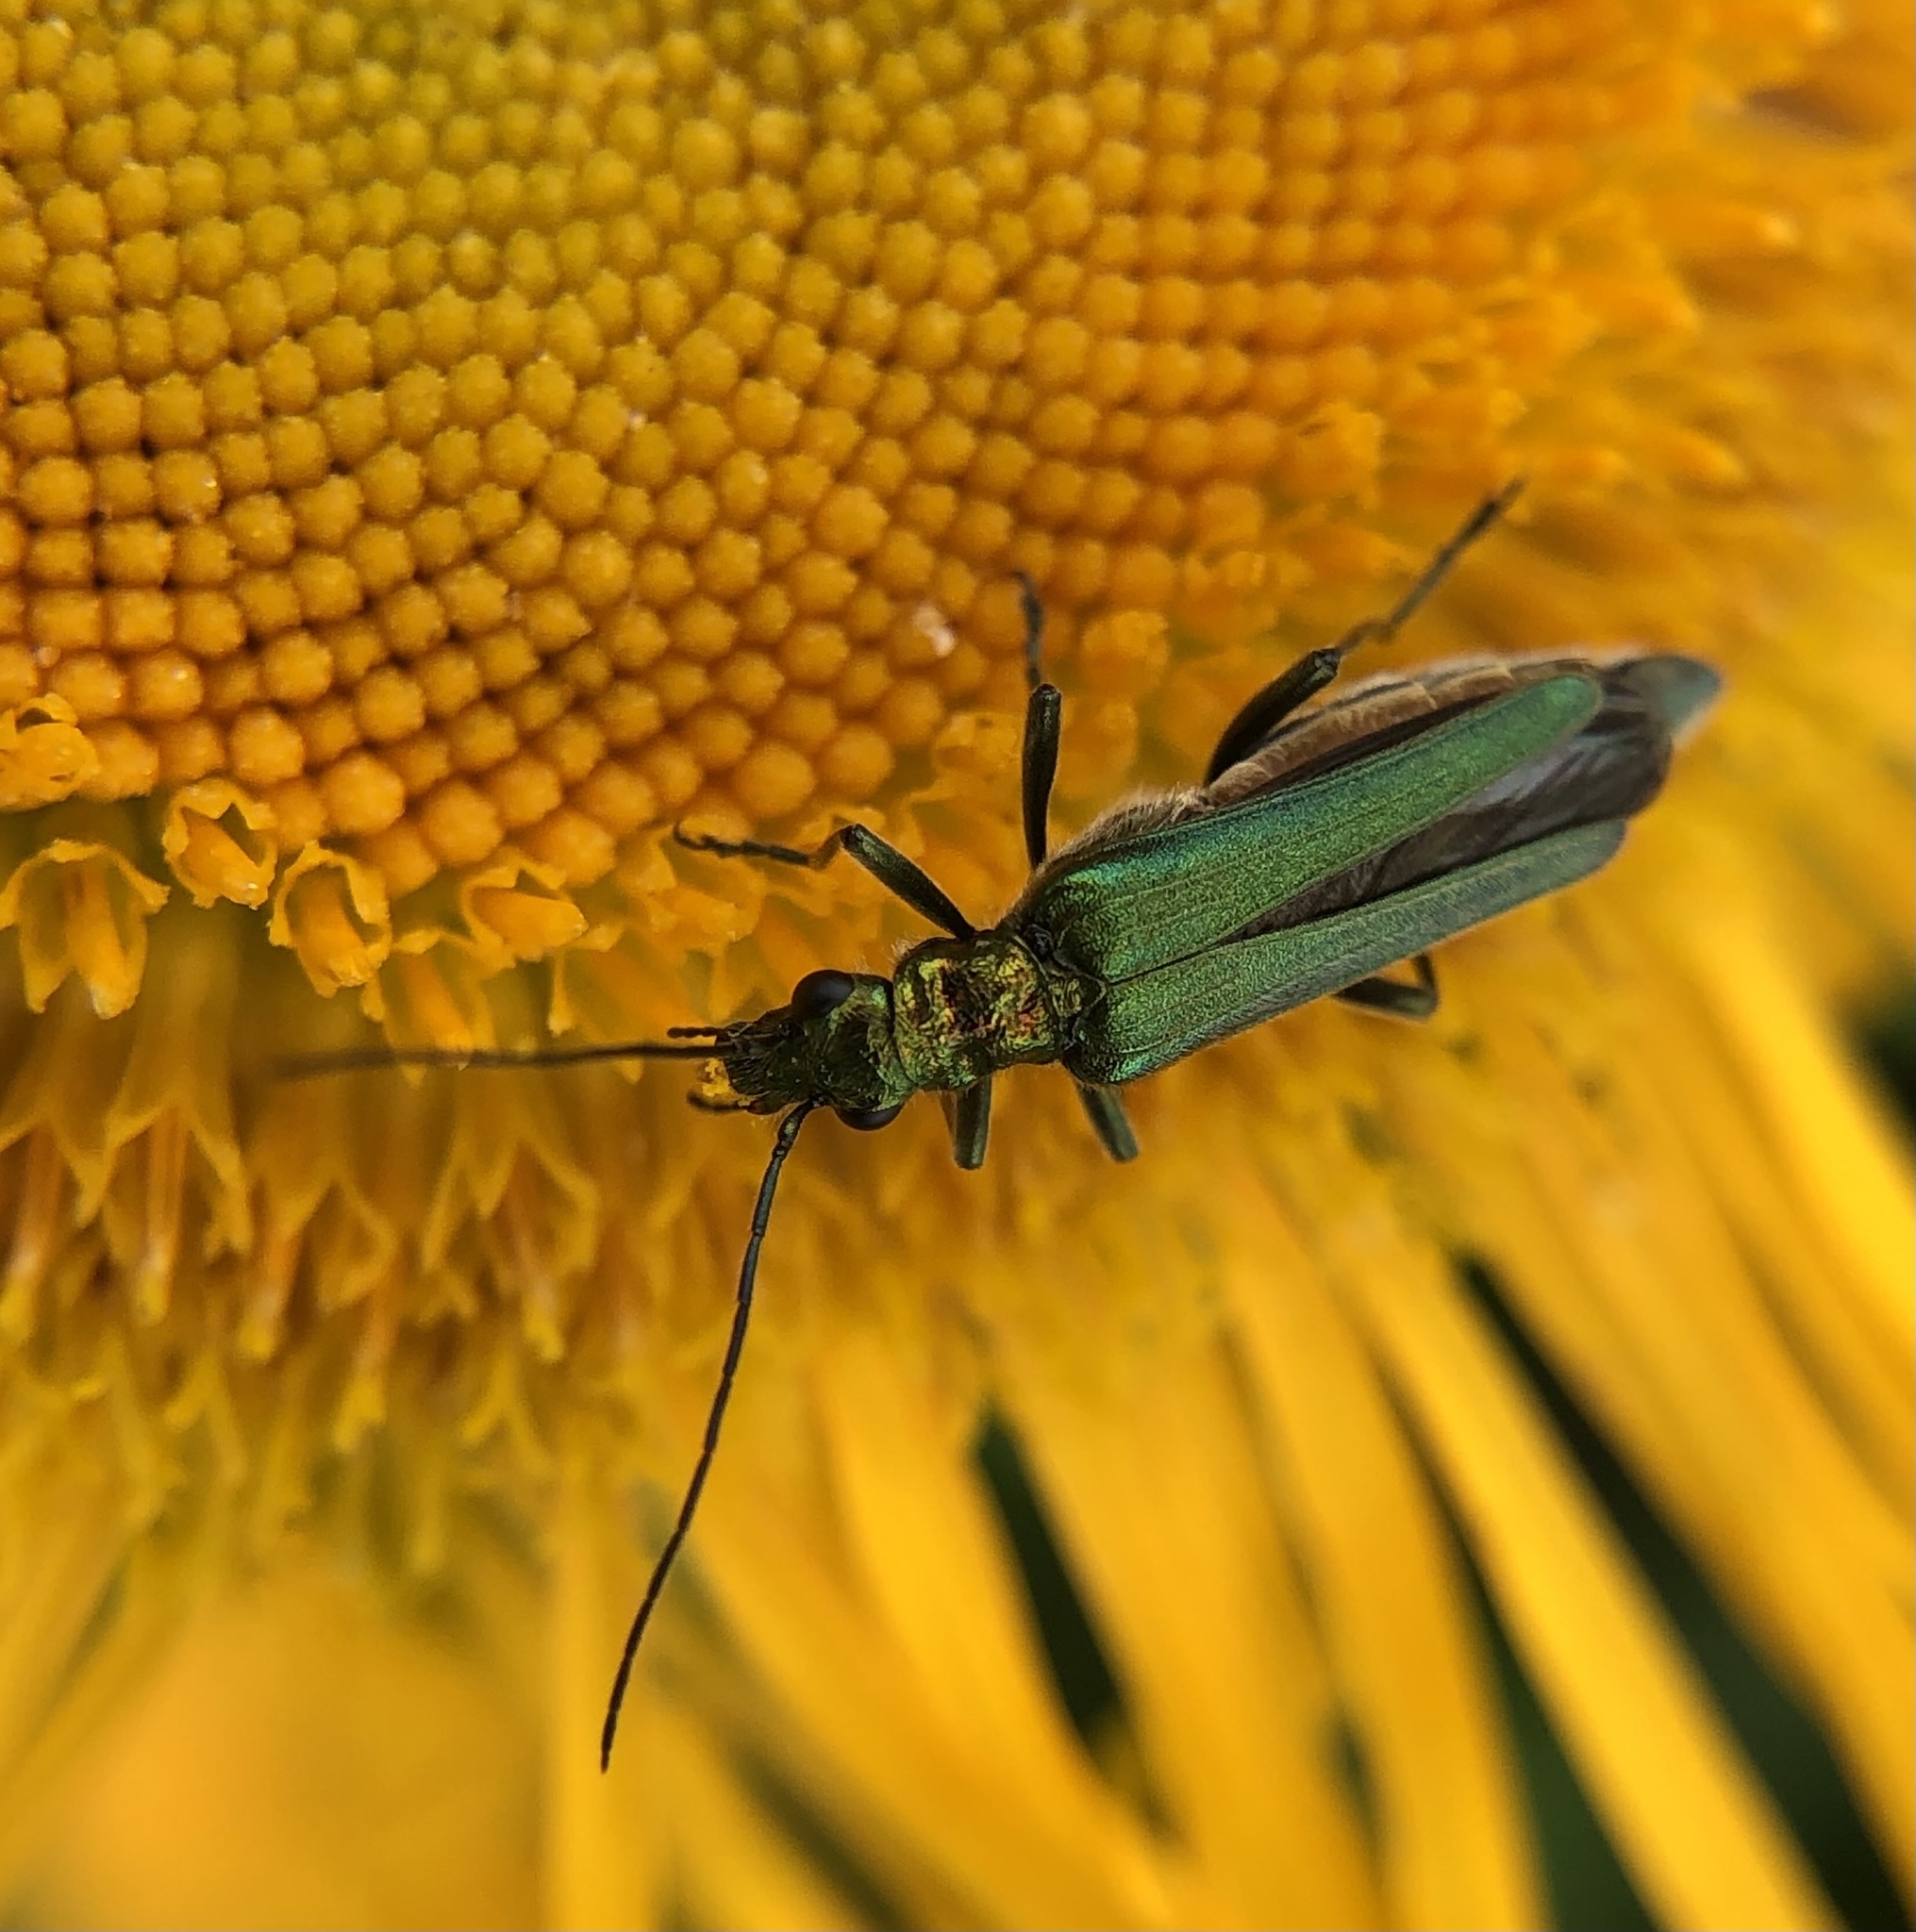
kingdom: Animalia
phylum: Arthropoda
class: Insecta
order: Coleoptera
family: Oedemeridae
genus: Oedemera
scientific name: Oedemera nobilis
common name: Swollen-thighed beetle
